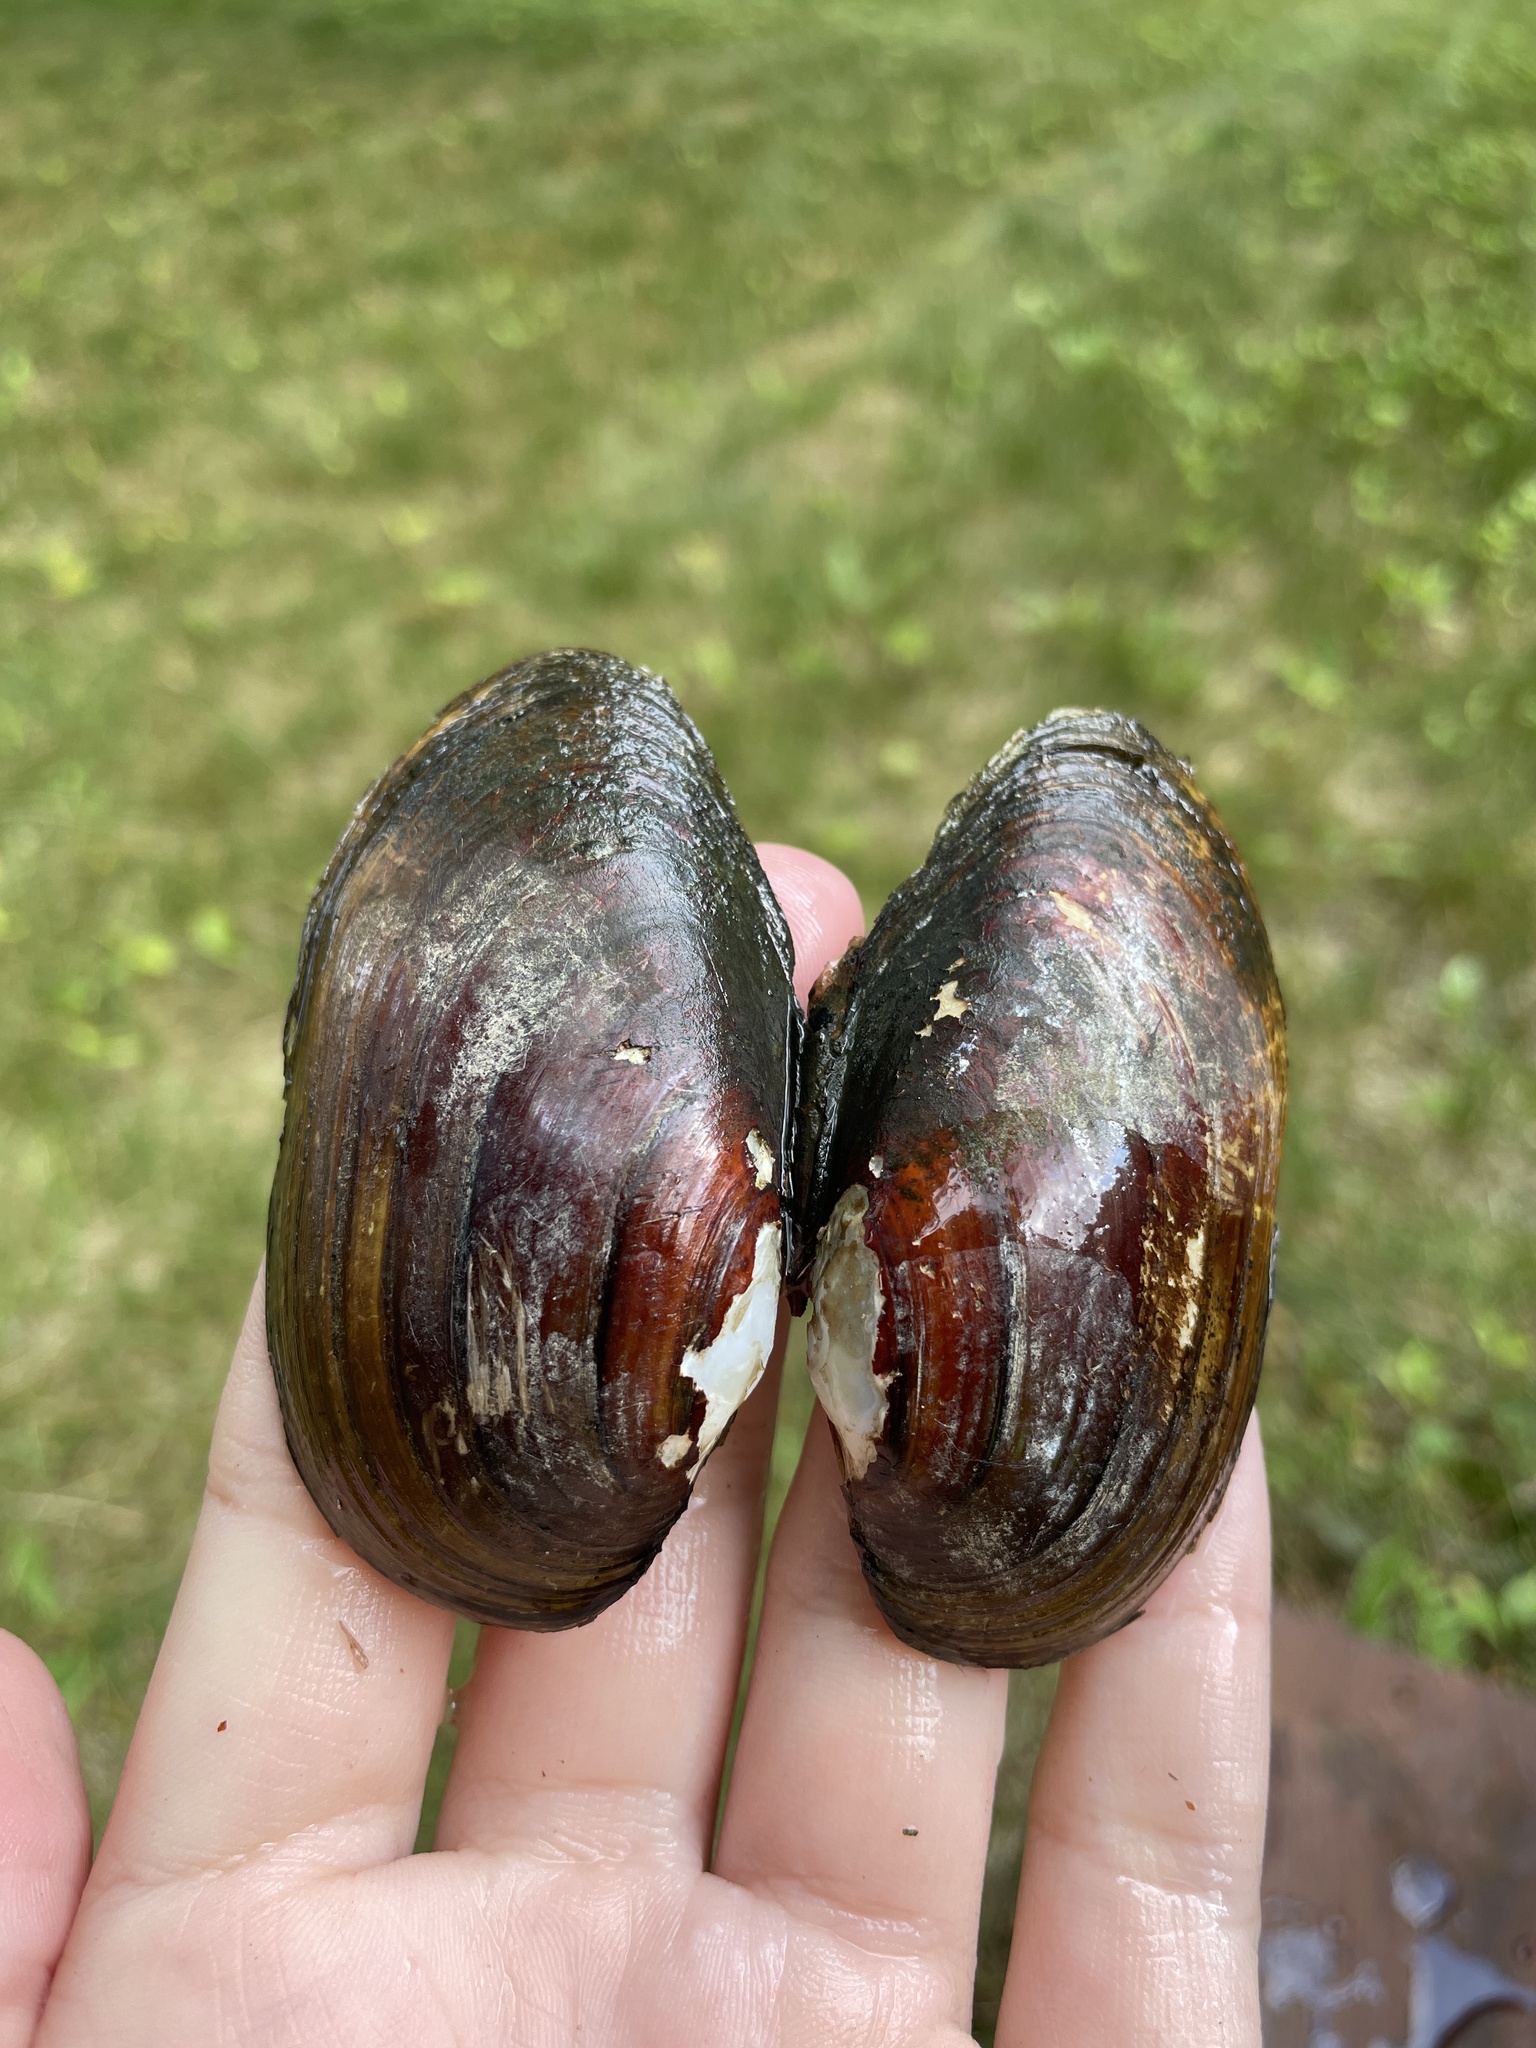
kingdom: Animalia
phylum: Mollusca
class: Bivalvia
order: Unionida
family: Unionidae
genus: Lampsilis
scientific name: Lampsilis siliquoidea
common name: Fatmucket
